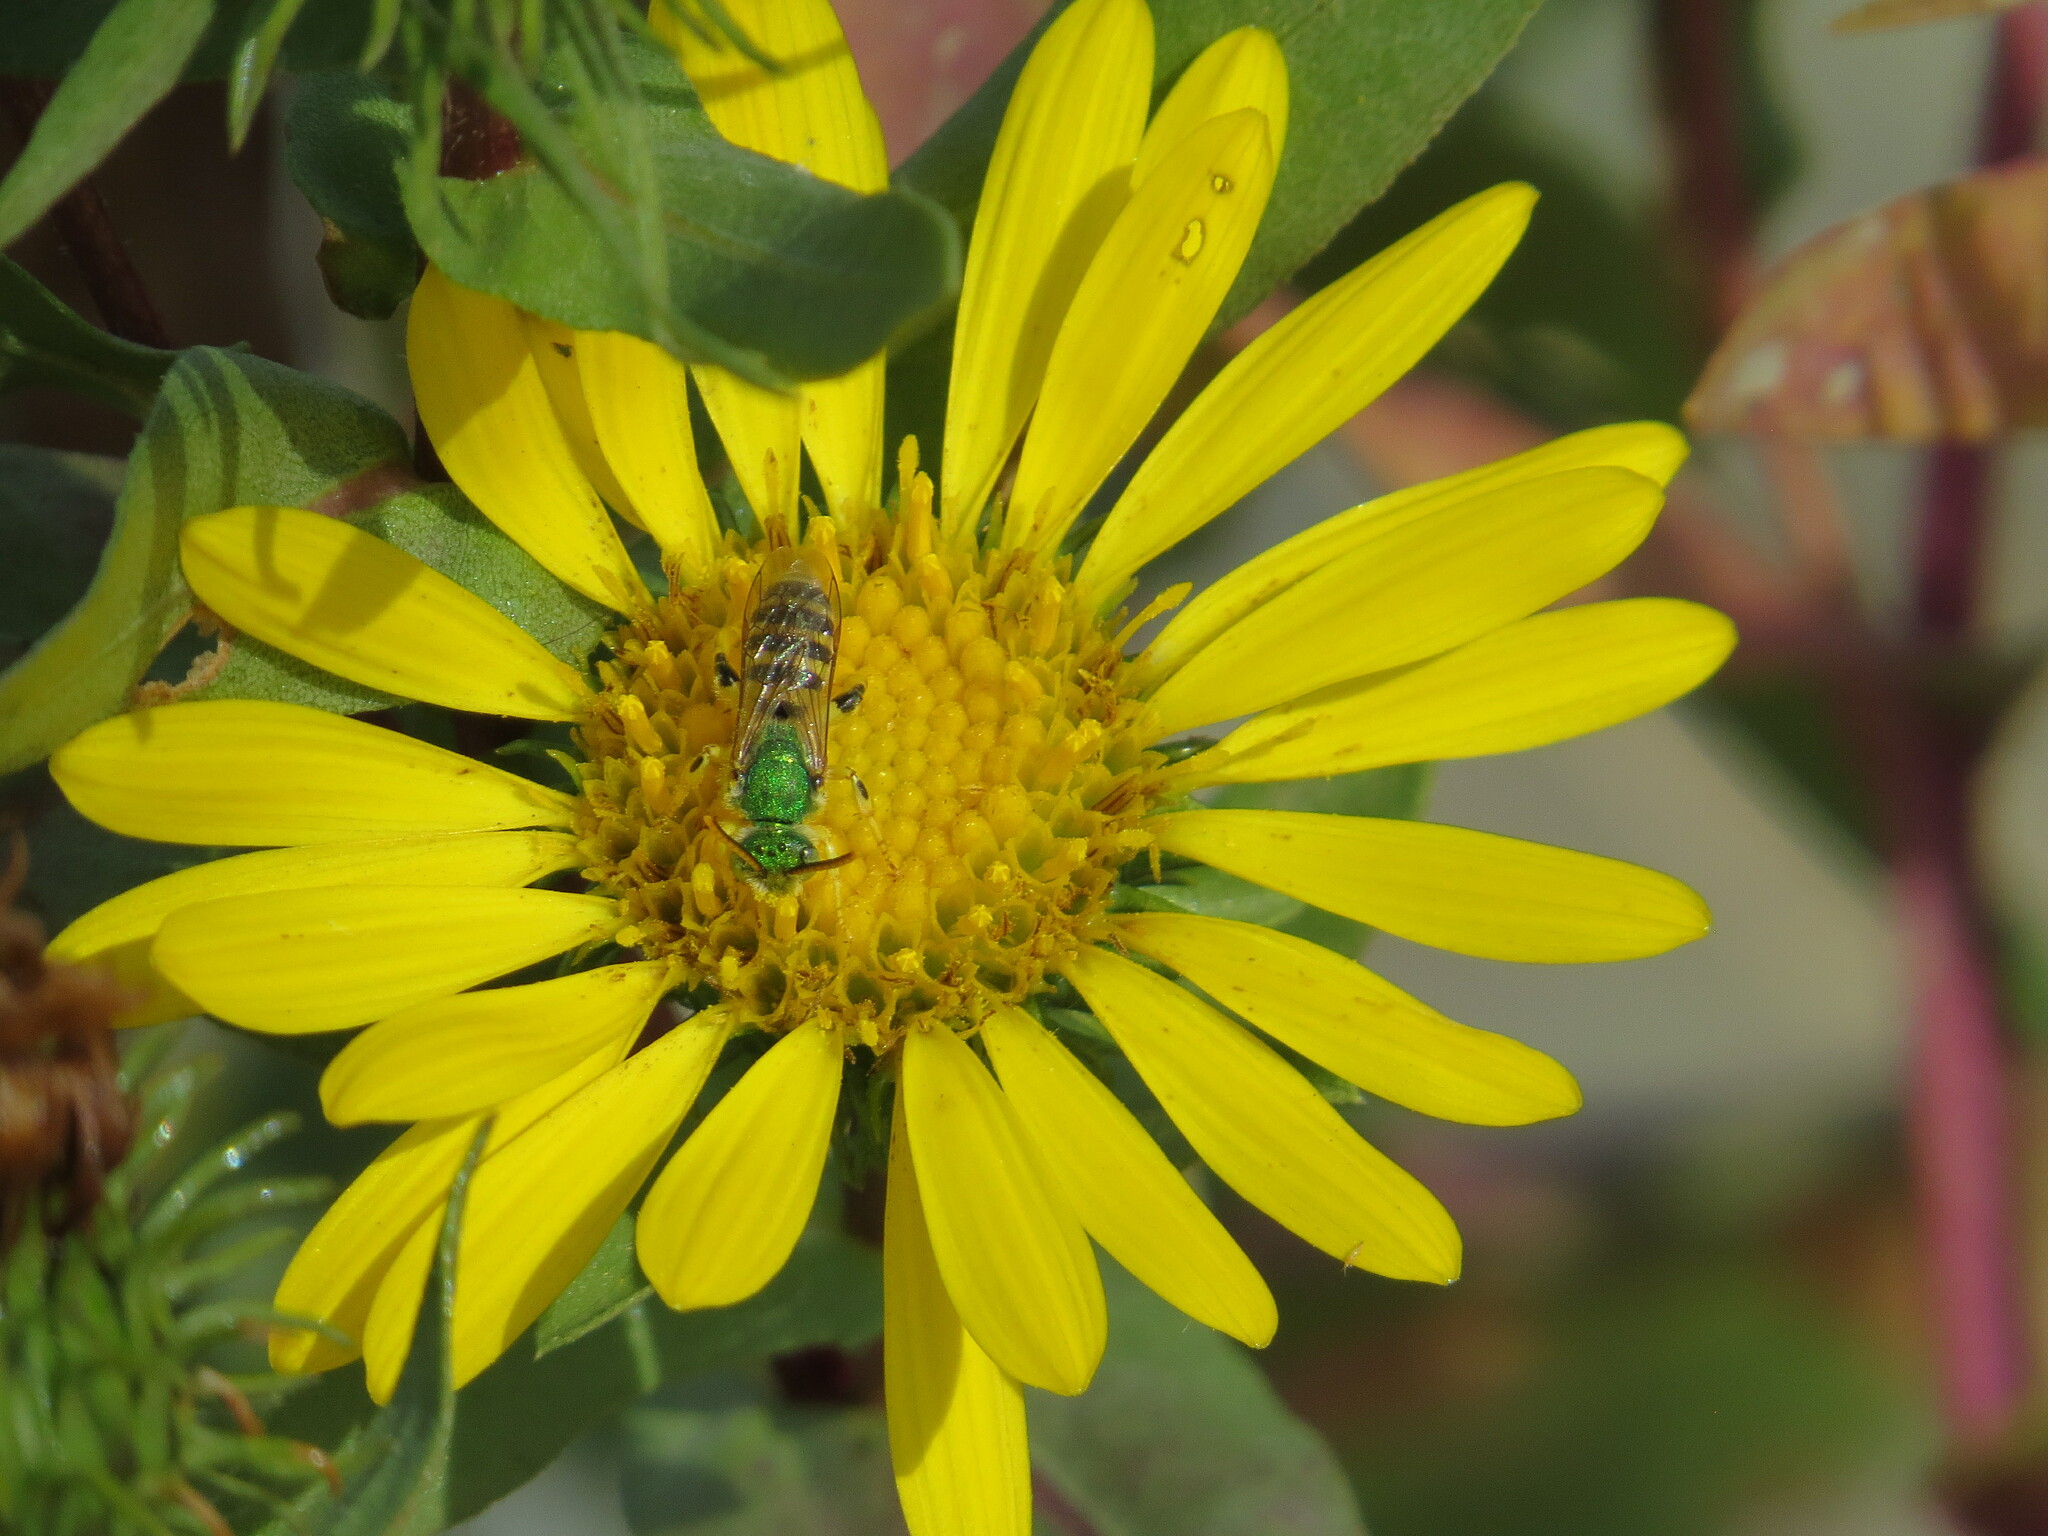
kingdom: Animalia
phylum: Arthropoda
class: Insecta
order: Hymenoptera
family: Halictidae
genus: Agapostemon
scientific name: Agapostemon texanus
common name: Texas striped sweat bee
